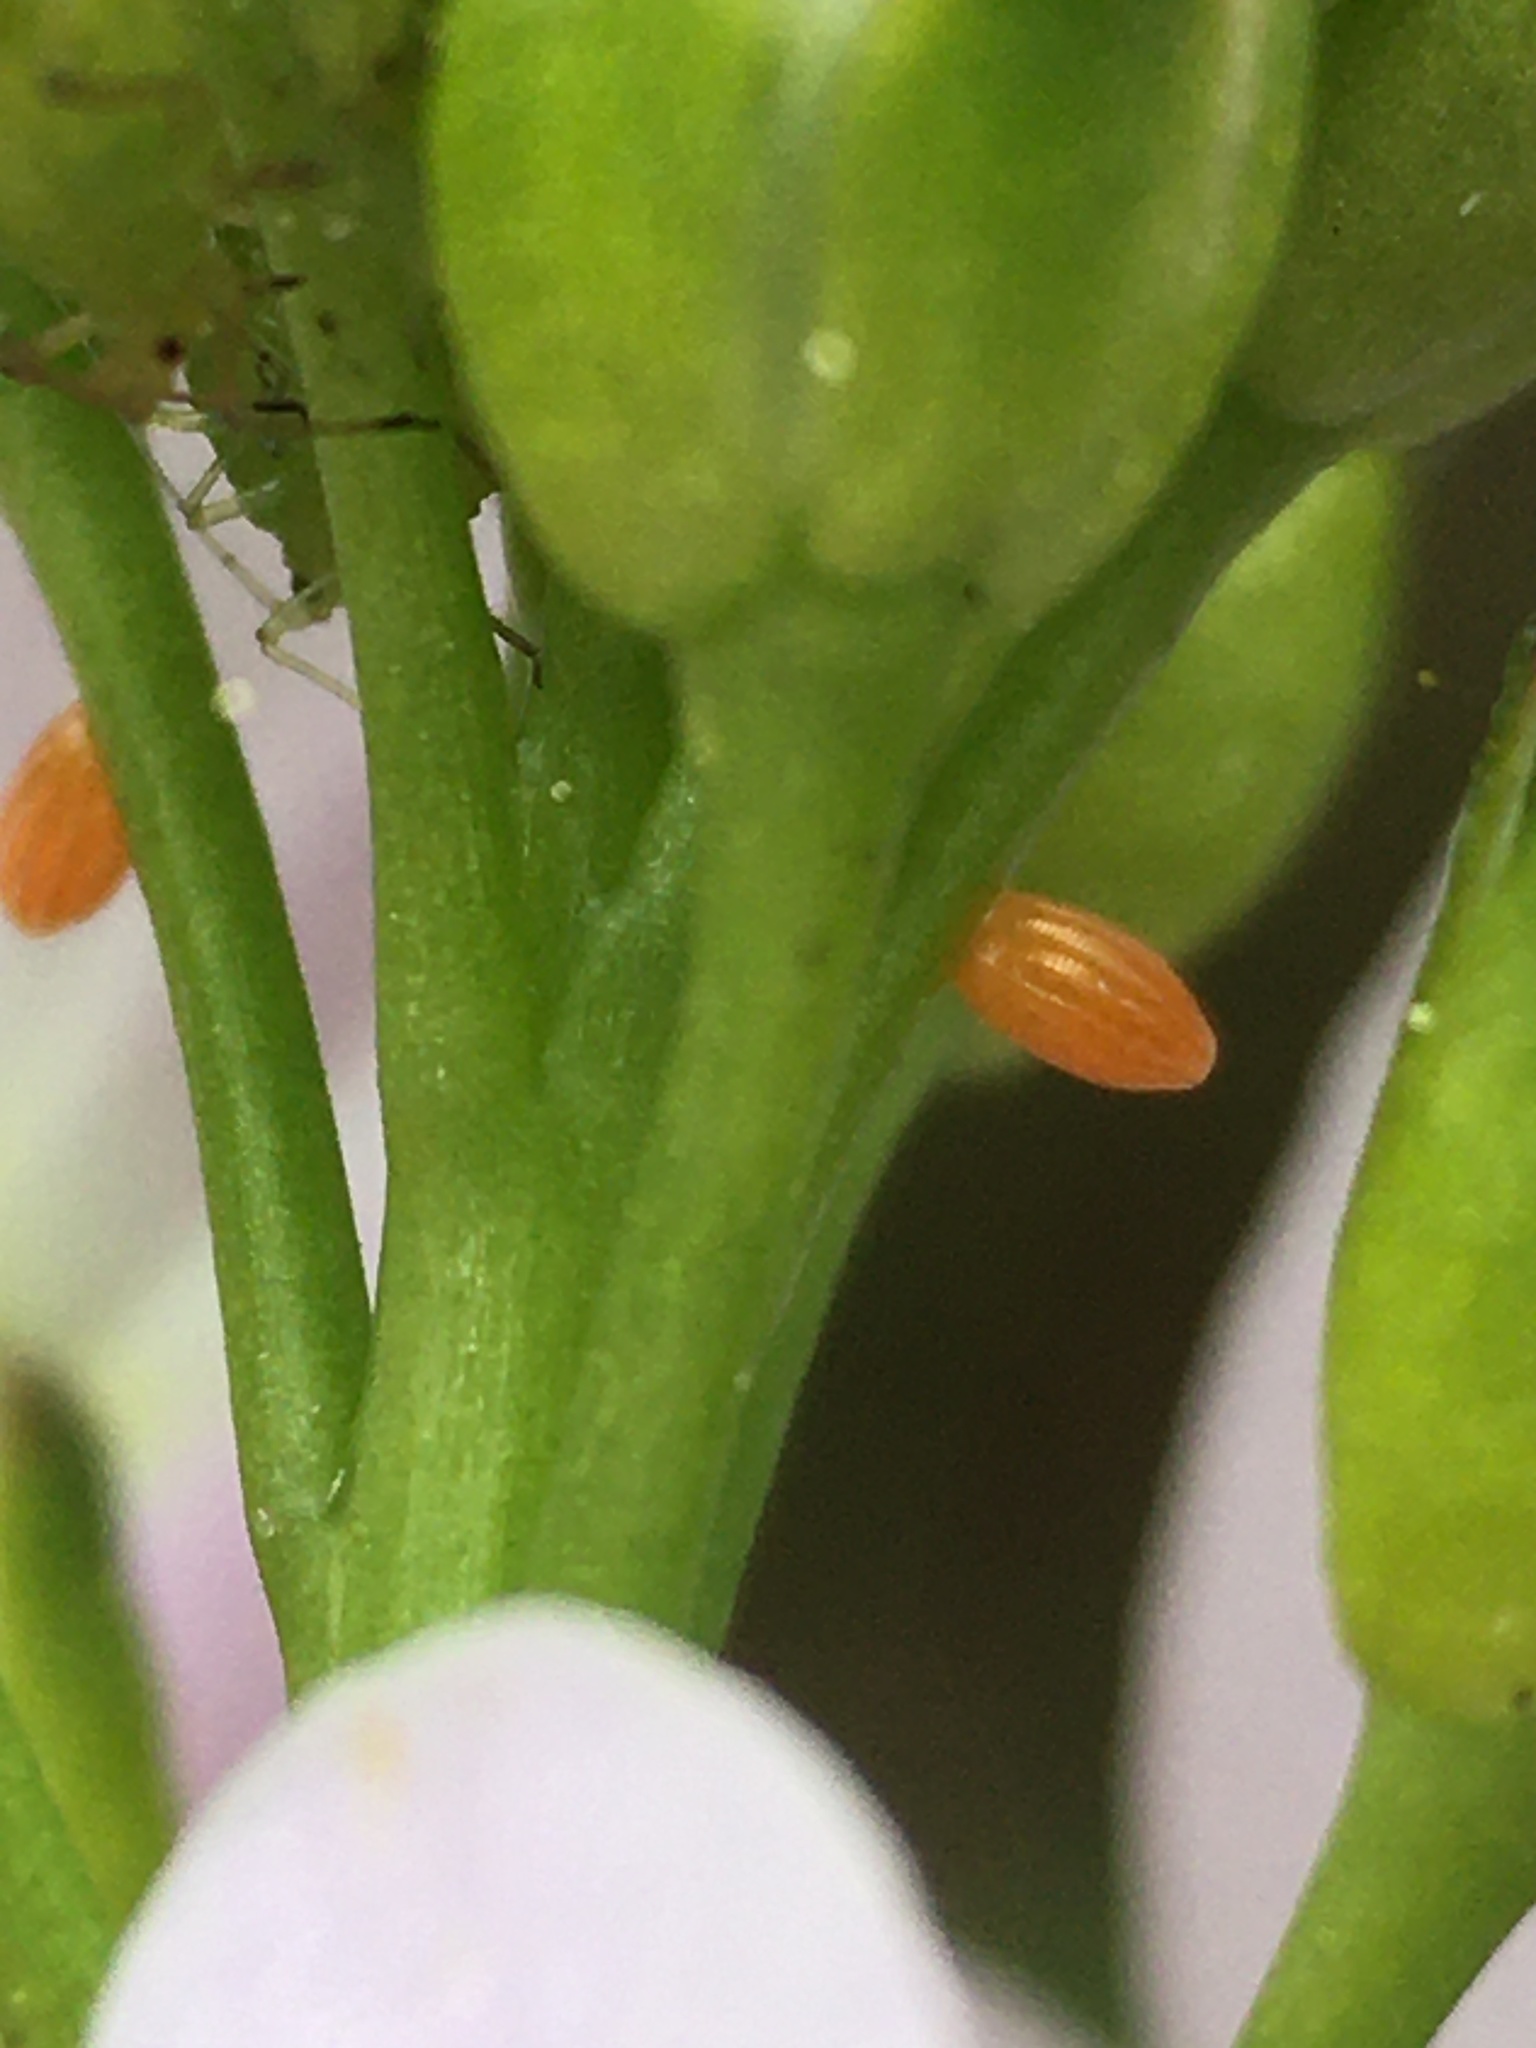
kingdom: Animalia
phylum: Arthropoda
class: Insecta
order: Lepidoptera
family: Pieridae
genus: Anthocharis
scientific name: Anthocharis cardamines
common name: Orange-tip
